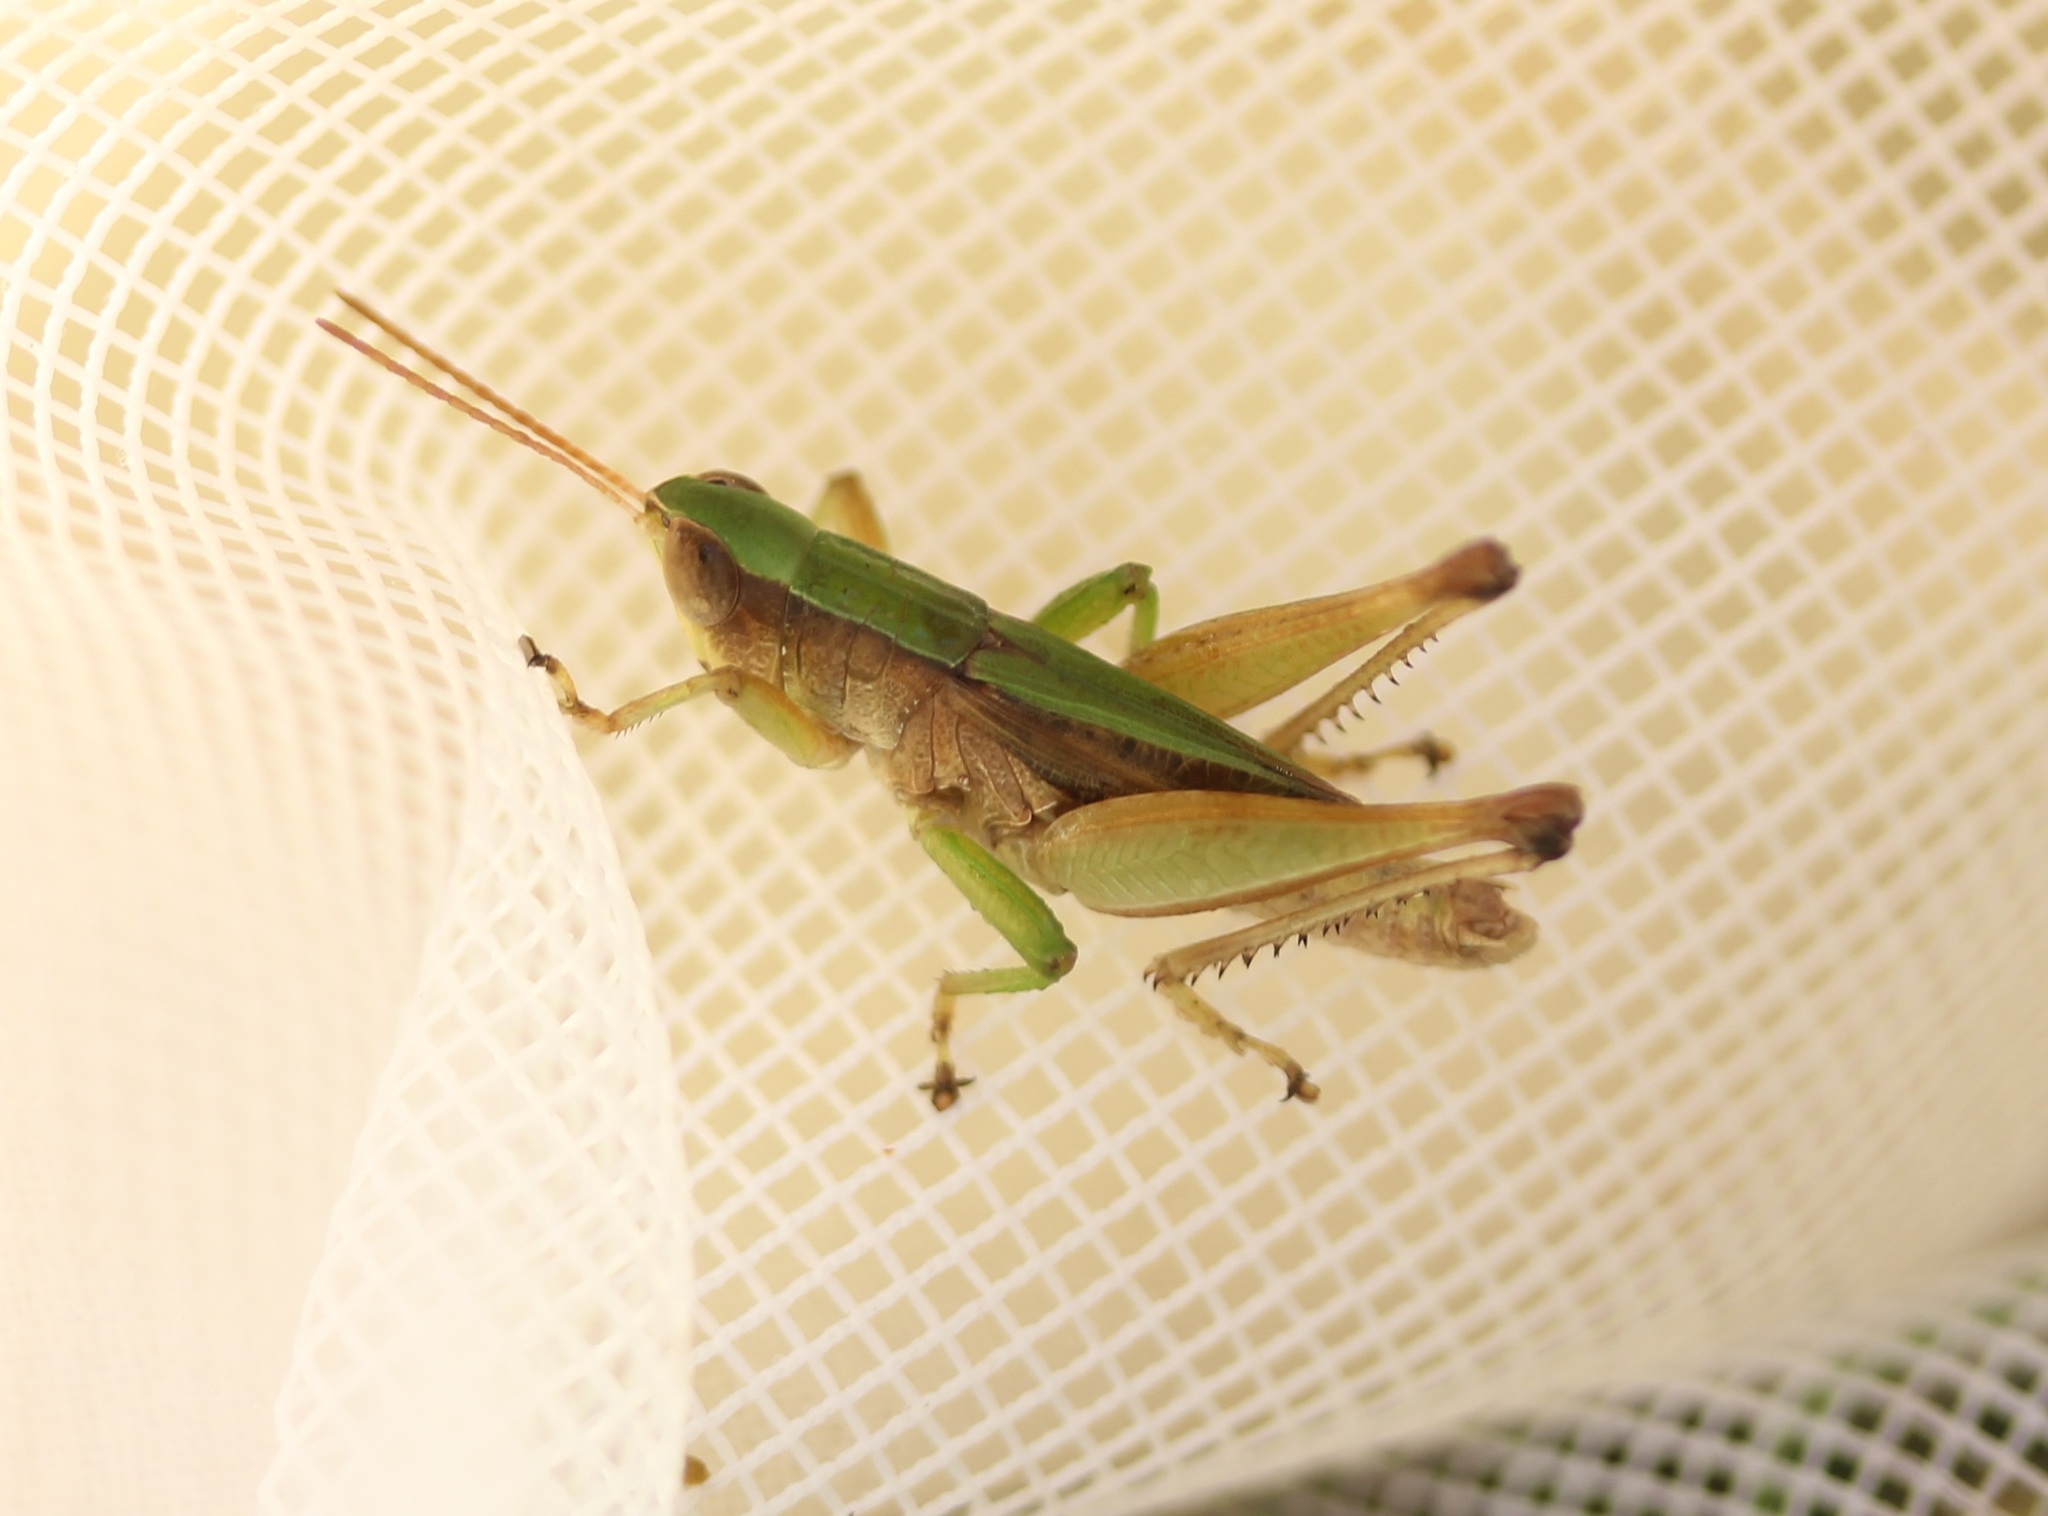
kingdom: Animalia
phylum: Arthropoda
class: Insecta
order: Orthoptera
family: Acrididae
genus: Dichromorpha
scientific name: Dichromorpha viridis
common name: Short-winged green grasshopper
